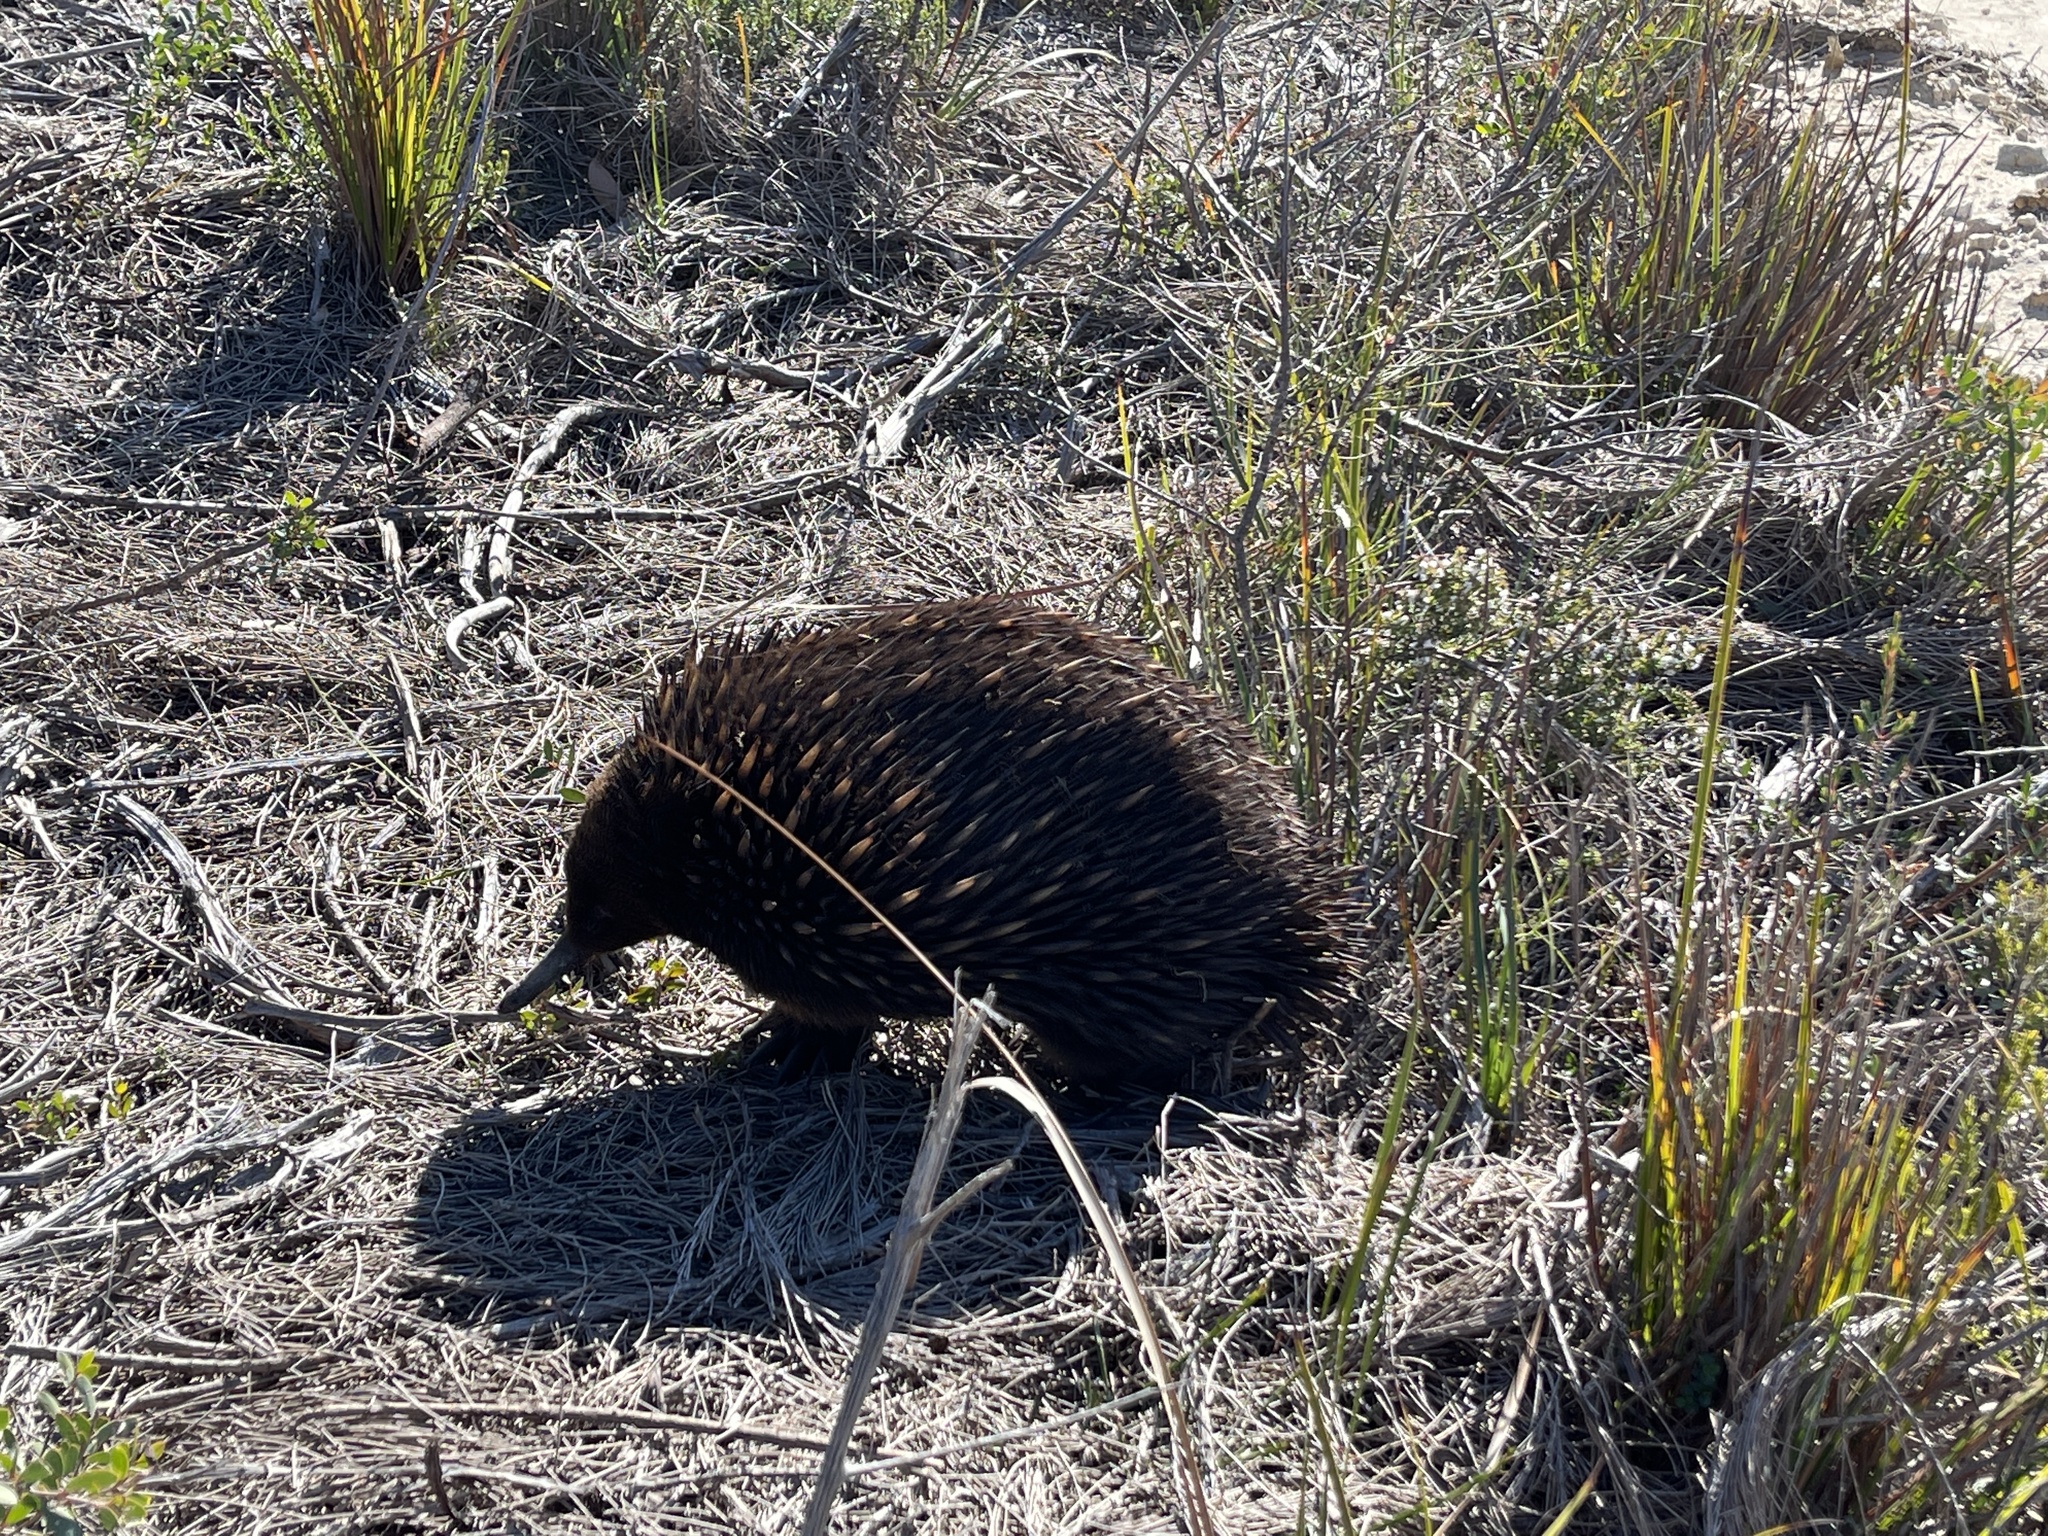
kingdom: Animalia
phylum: Chordata
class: Mammalia
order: Monotremata
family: Tachyglossidae
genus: Tachyglossus
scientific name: Tachyglossus aculeatus
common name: Short-beaked echidna
